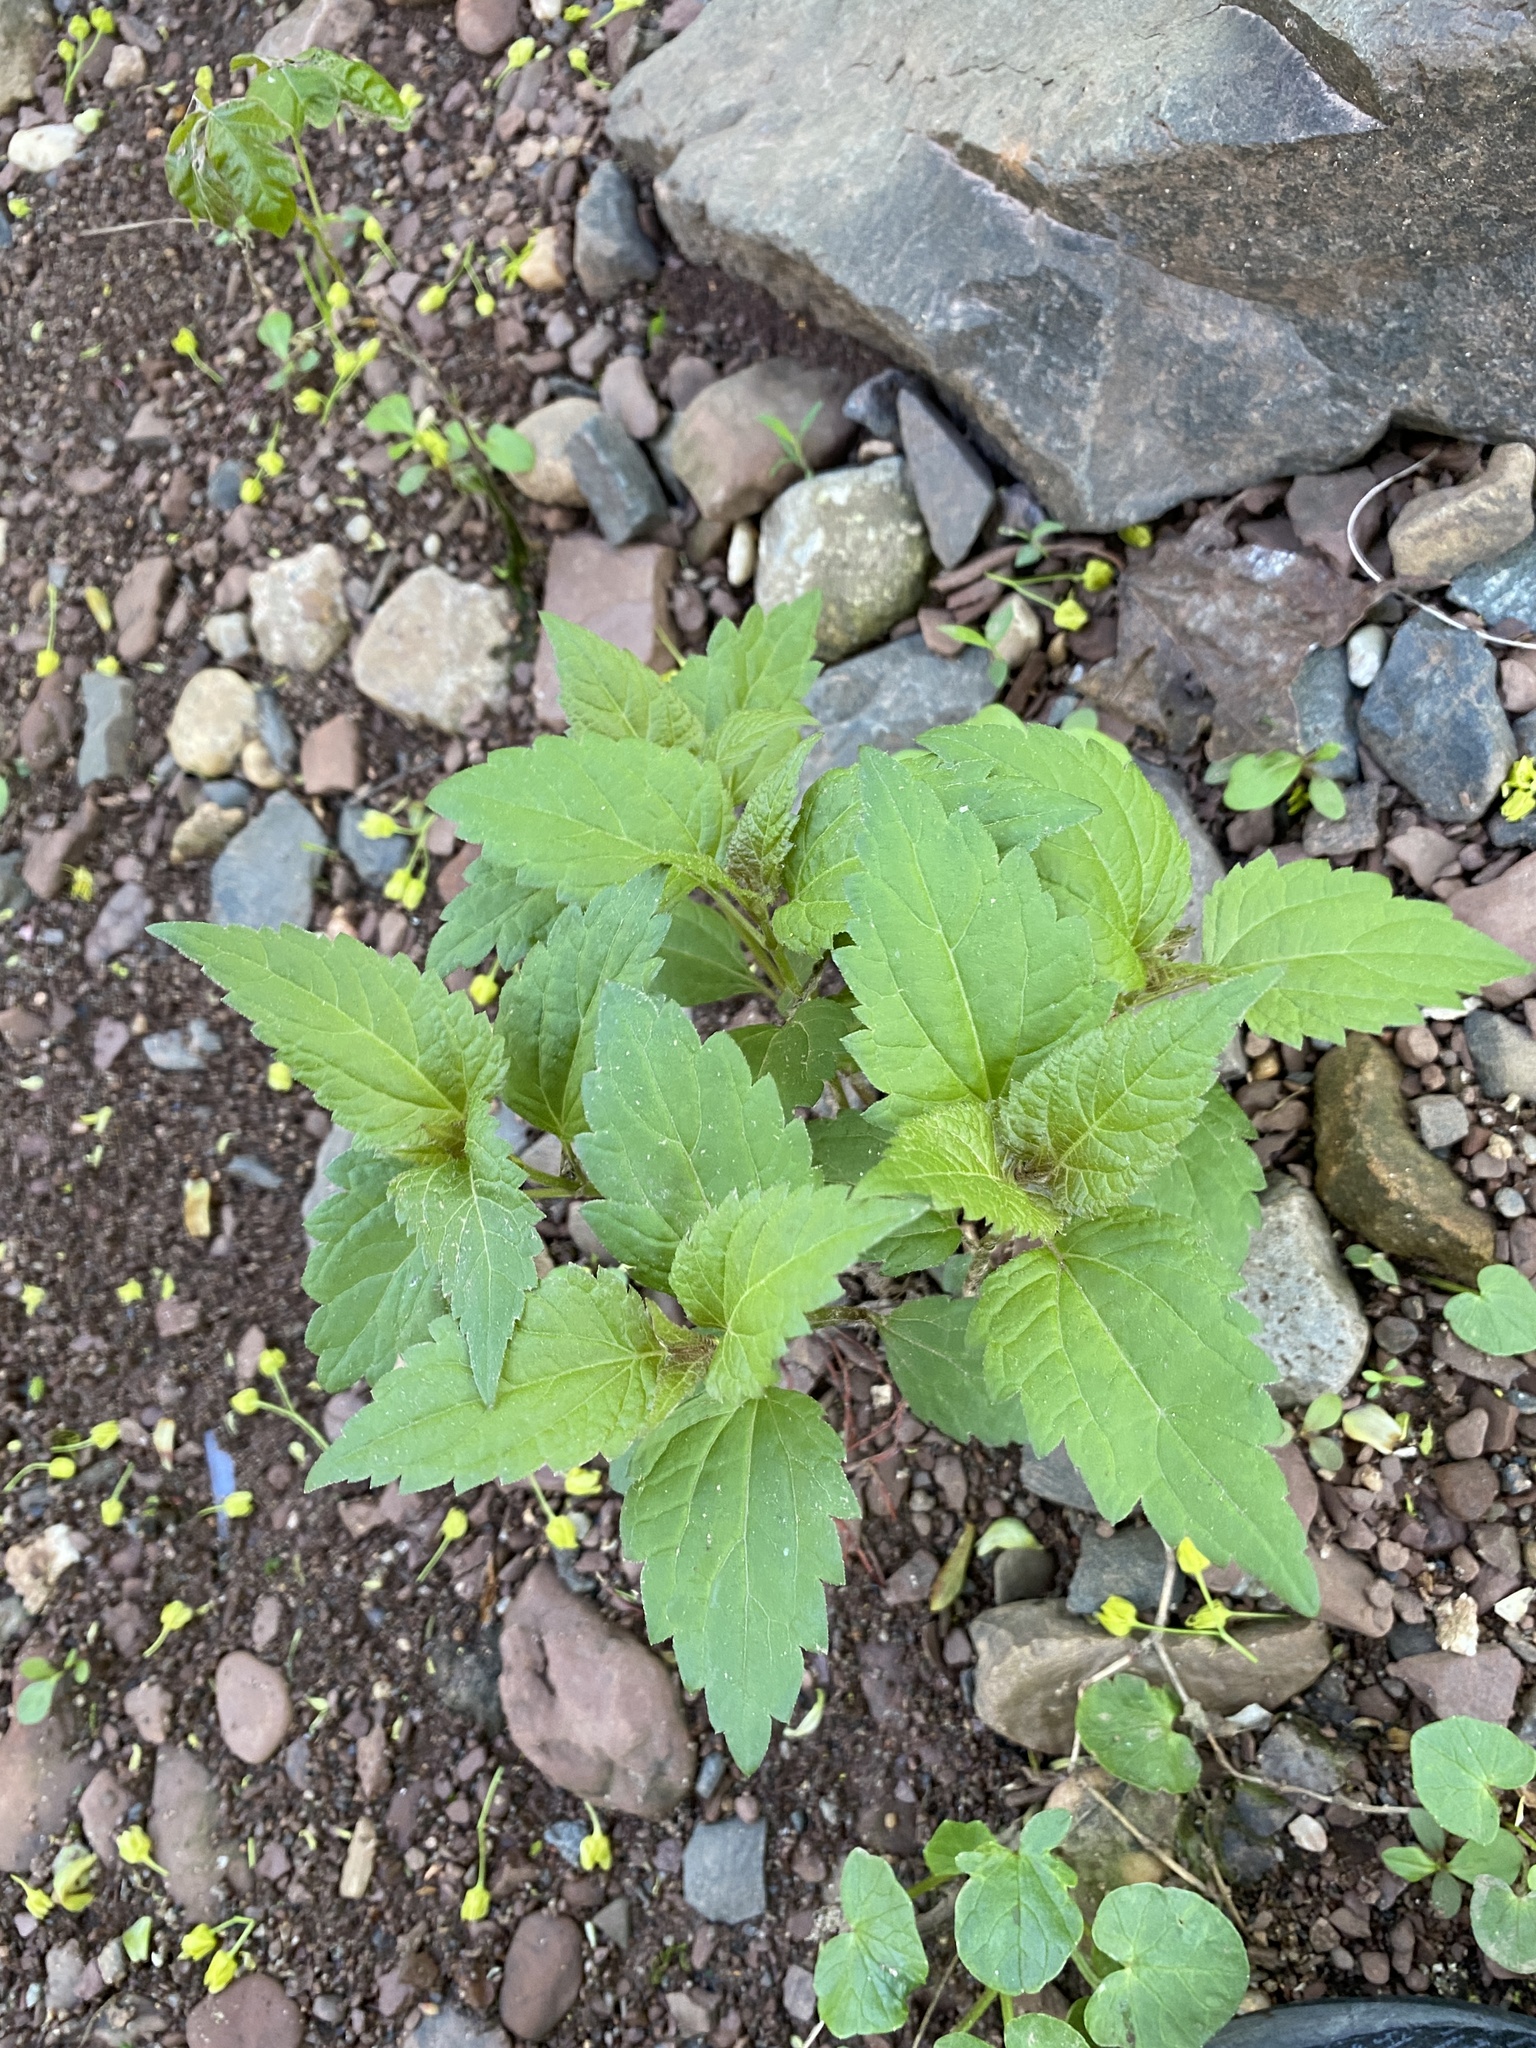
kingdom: Plantae
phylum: Tracheophyta
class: Magnoliopsida
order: Asterales
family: Asteraceae
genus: Ageratina
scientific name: Ageratina altissima
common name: White snakeroot
